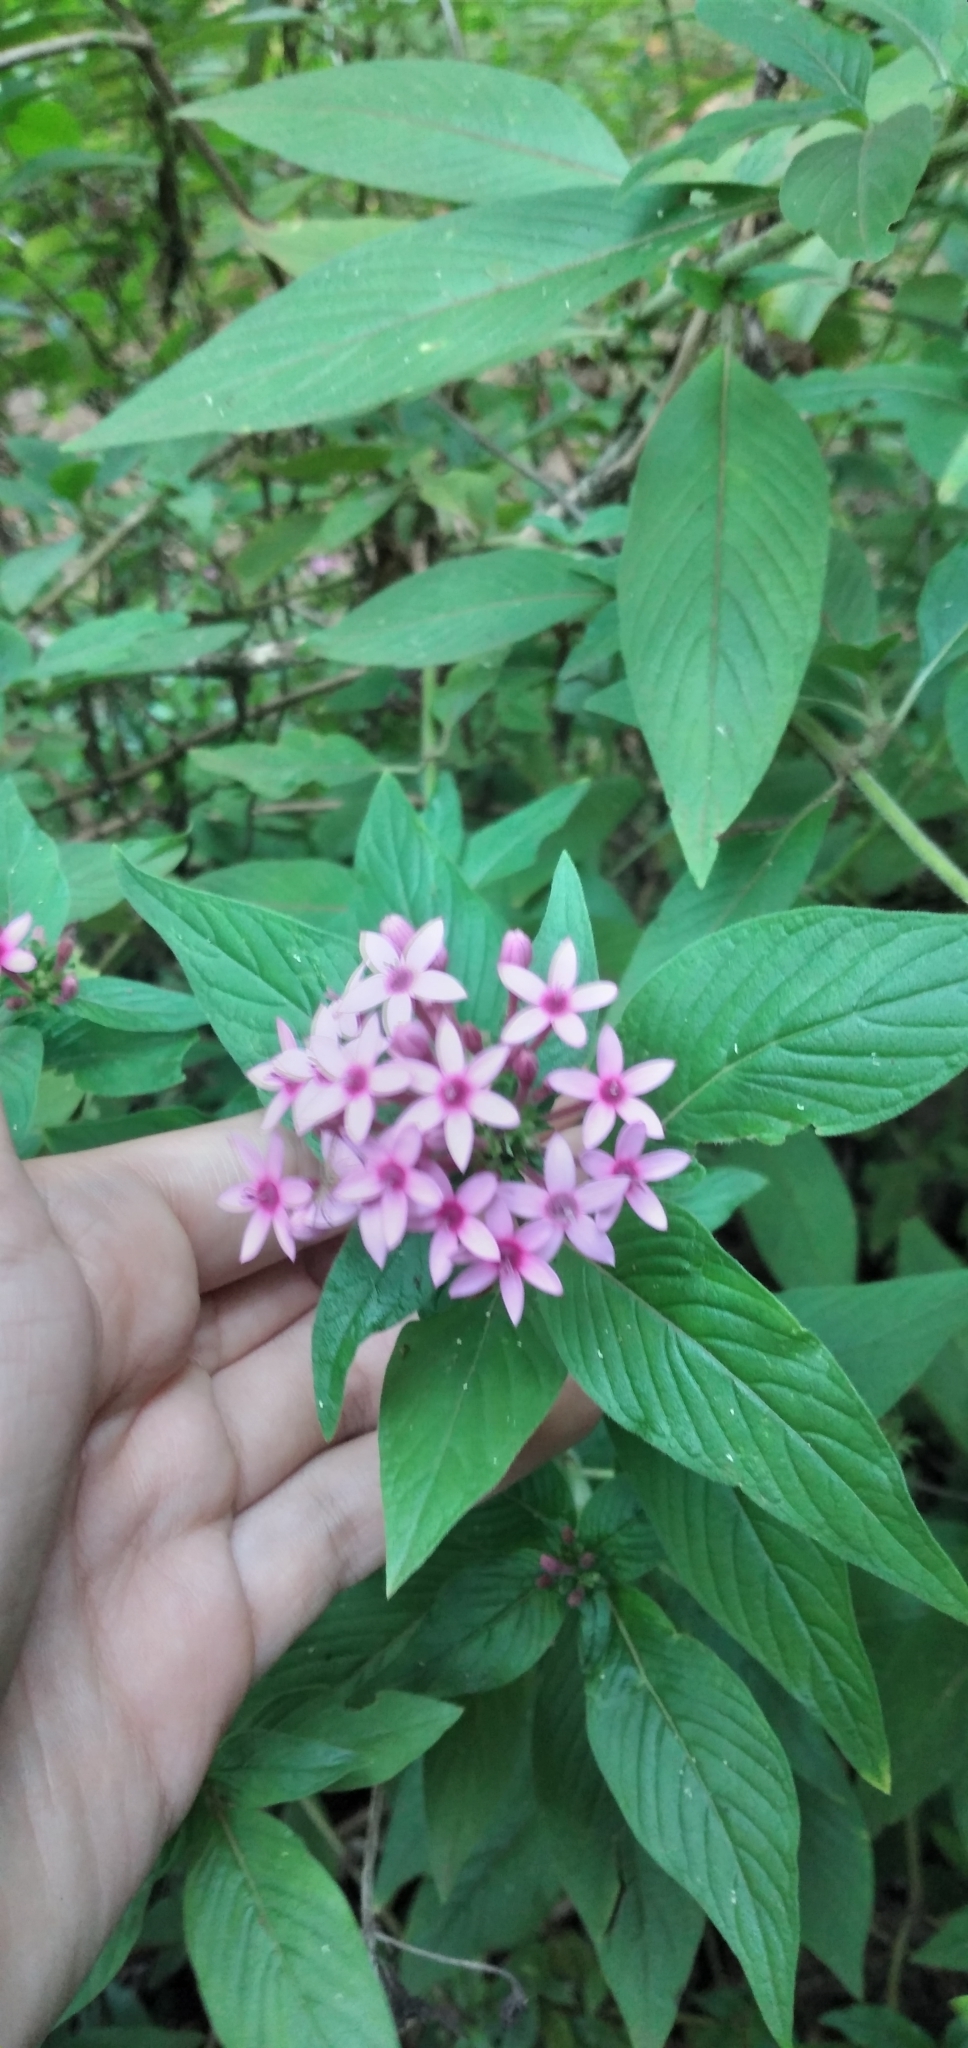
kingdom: Plantae
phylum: Tracheophyta
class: Magnoliopsida
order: Gentianales
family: Rubiaceae
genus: Pentas
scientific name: Pentas lanceolata
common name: Egyptian starcluster
